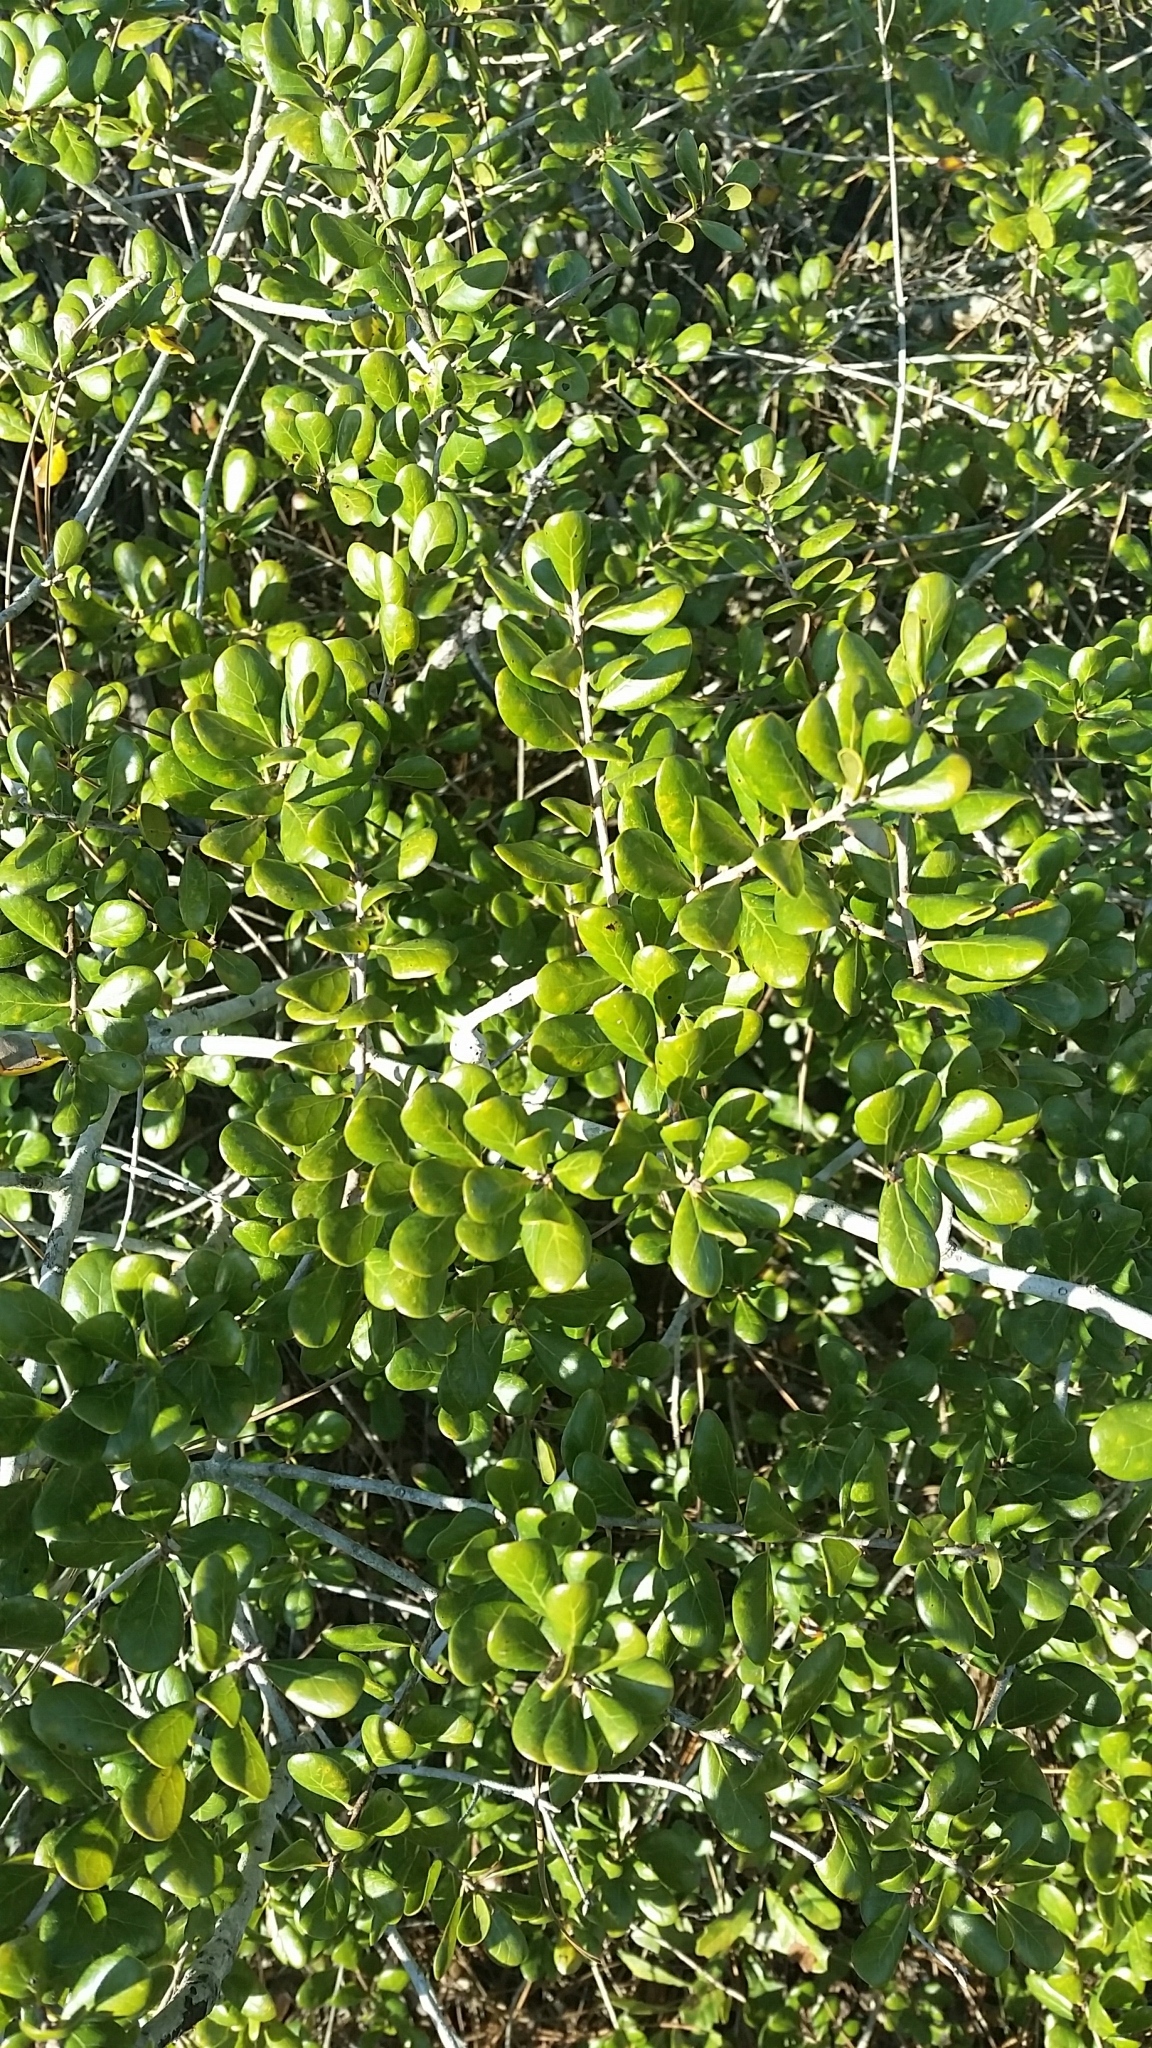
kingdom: Plantae
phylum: Tracheophyta
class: Magnoliopsida
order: Fagales
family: Fagaceae
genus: Quercus
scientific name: Quercus myrtifolia
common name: Myrtle oak
